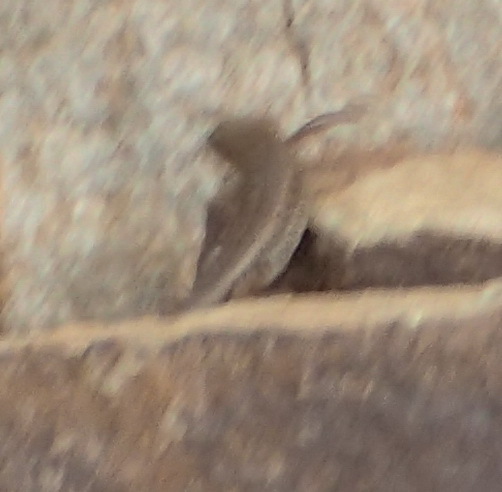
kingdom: Animalia
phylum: Chordata
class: Squamata
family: Scincidae
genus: Trachylepis
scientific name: Trachylepis variegata
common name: Variegated skink
